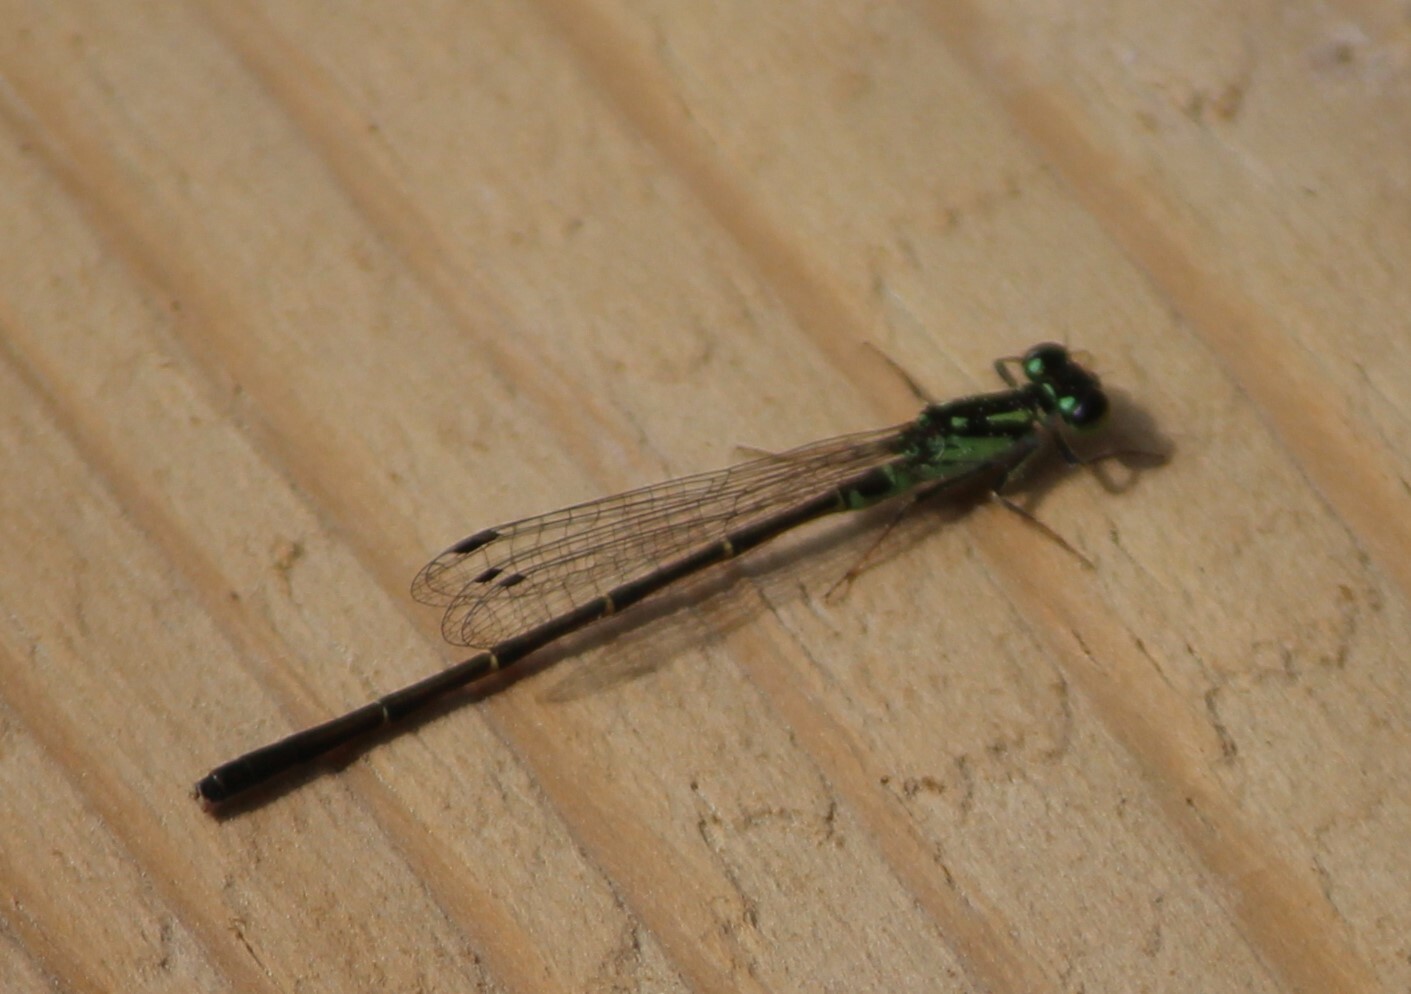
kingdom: Animalia
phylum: Arthropoda
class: Insecta
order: Odonata
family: Coenagrionidae
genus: Ischnura
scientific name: Ischnura posita
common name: Fragile forktail
